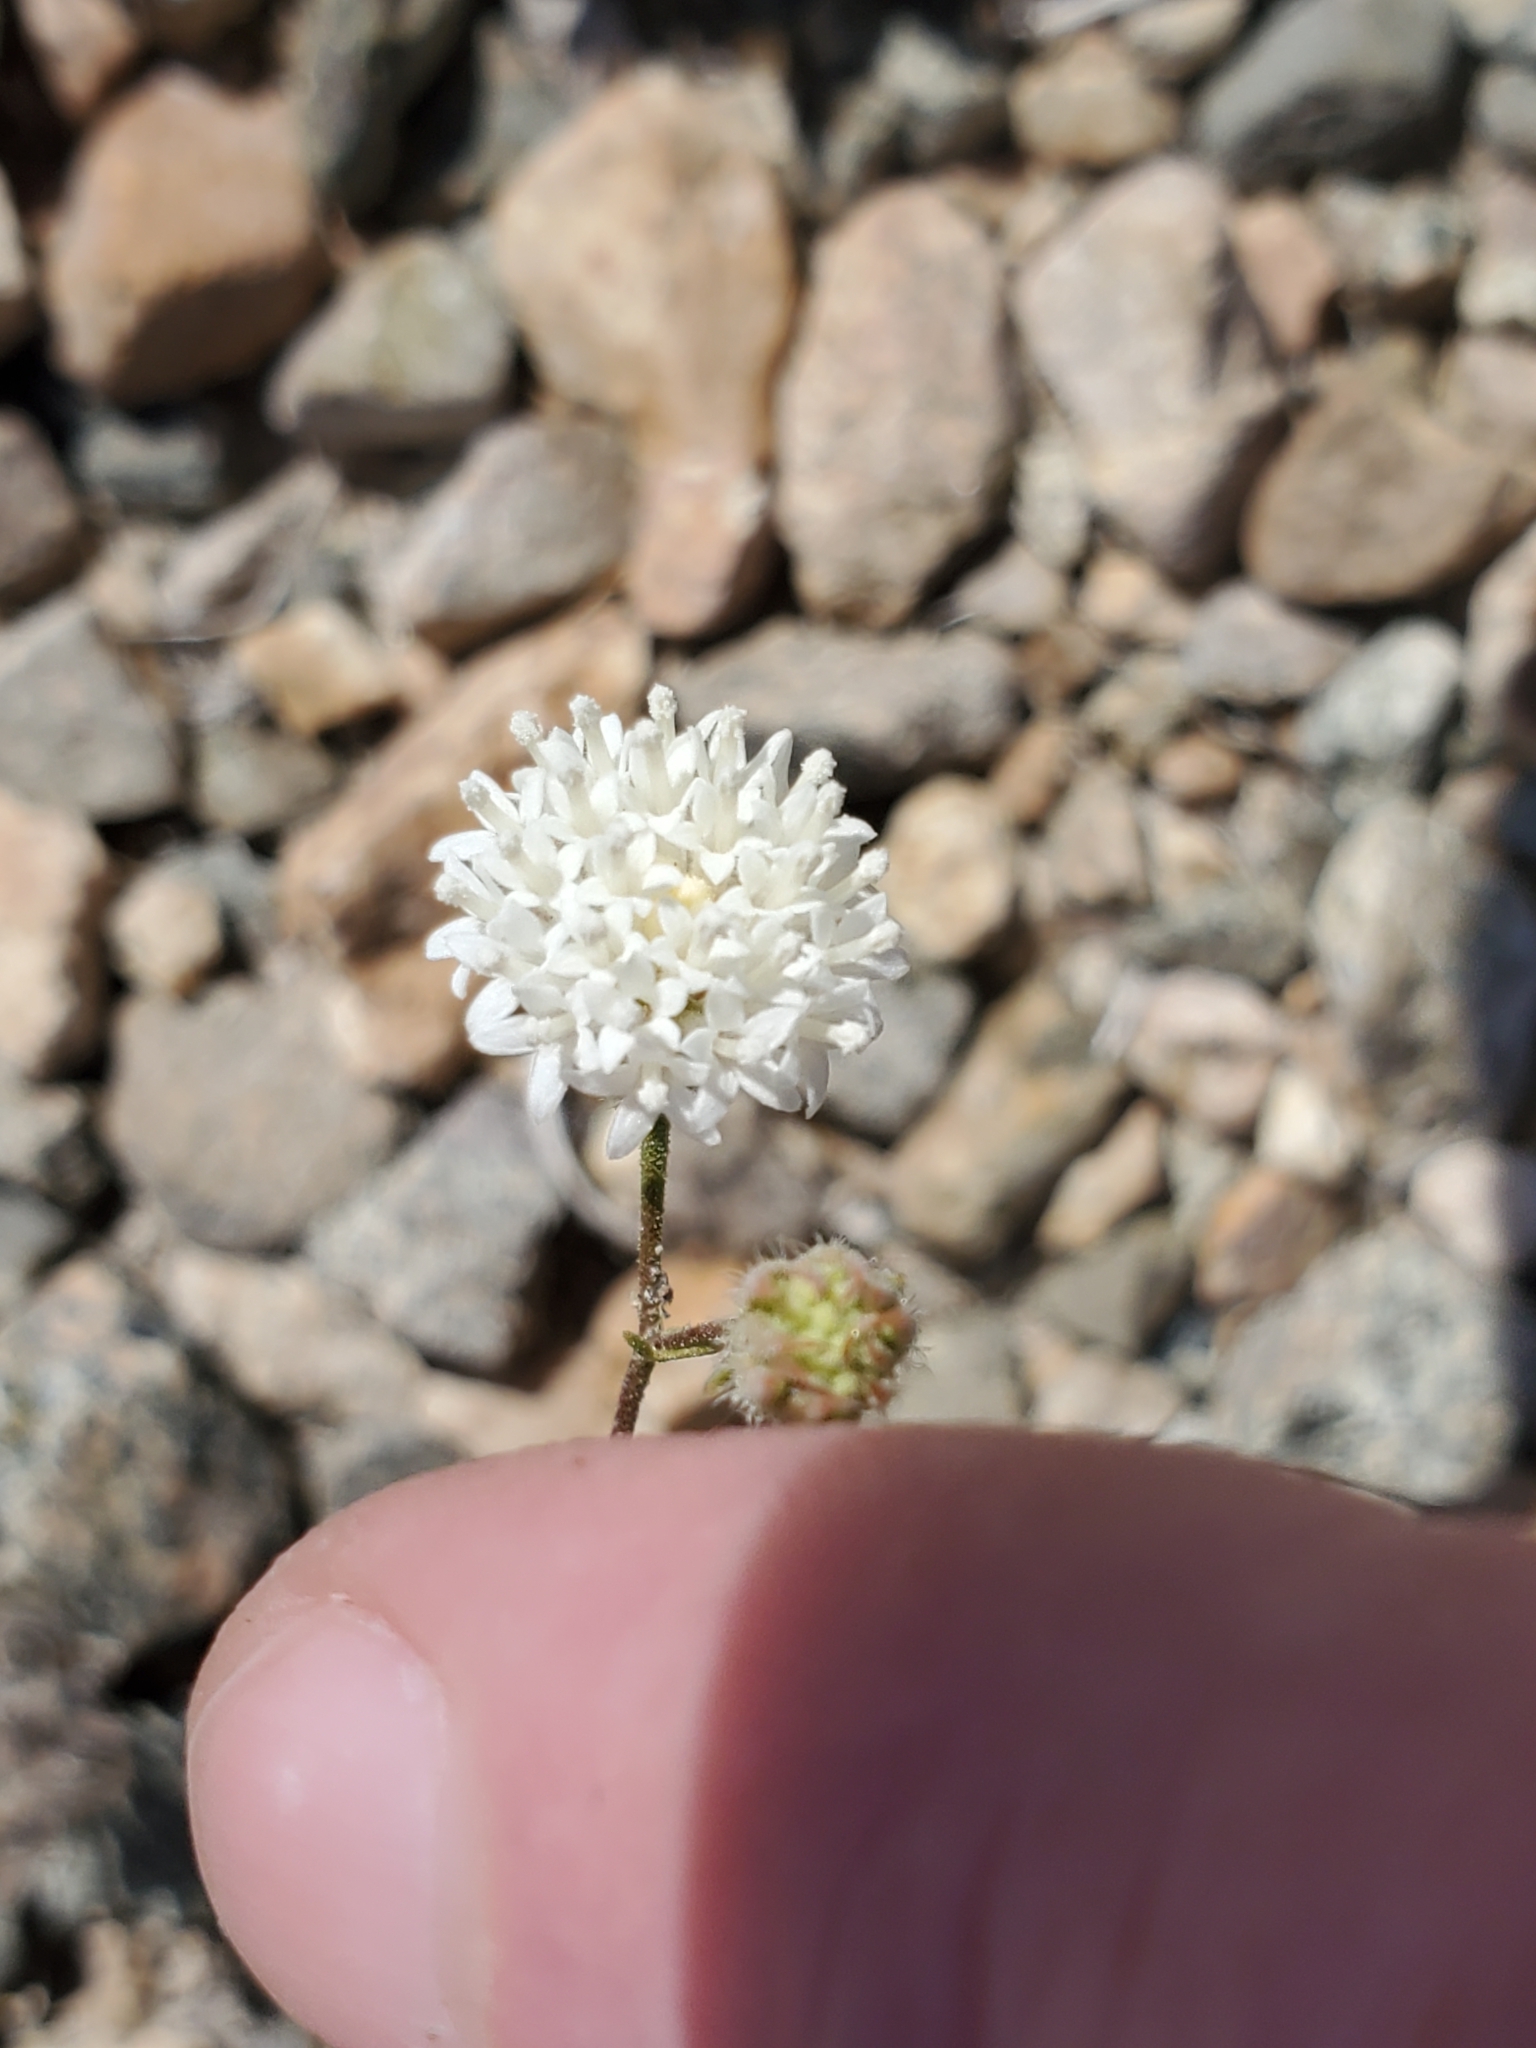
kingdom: Plantae
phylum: Tracheophyta
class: Magnoliopsida
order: Asterales
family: Asteraceae
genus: Chaenactis
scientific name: Chaenactis carphoclinia
